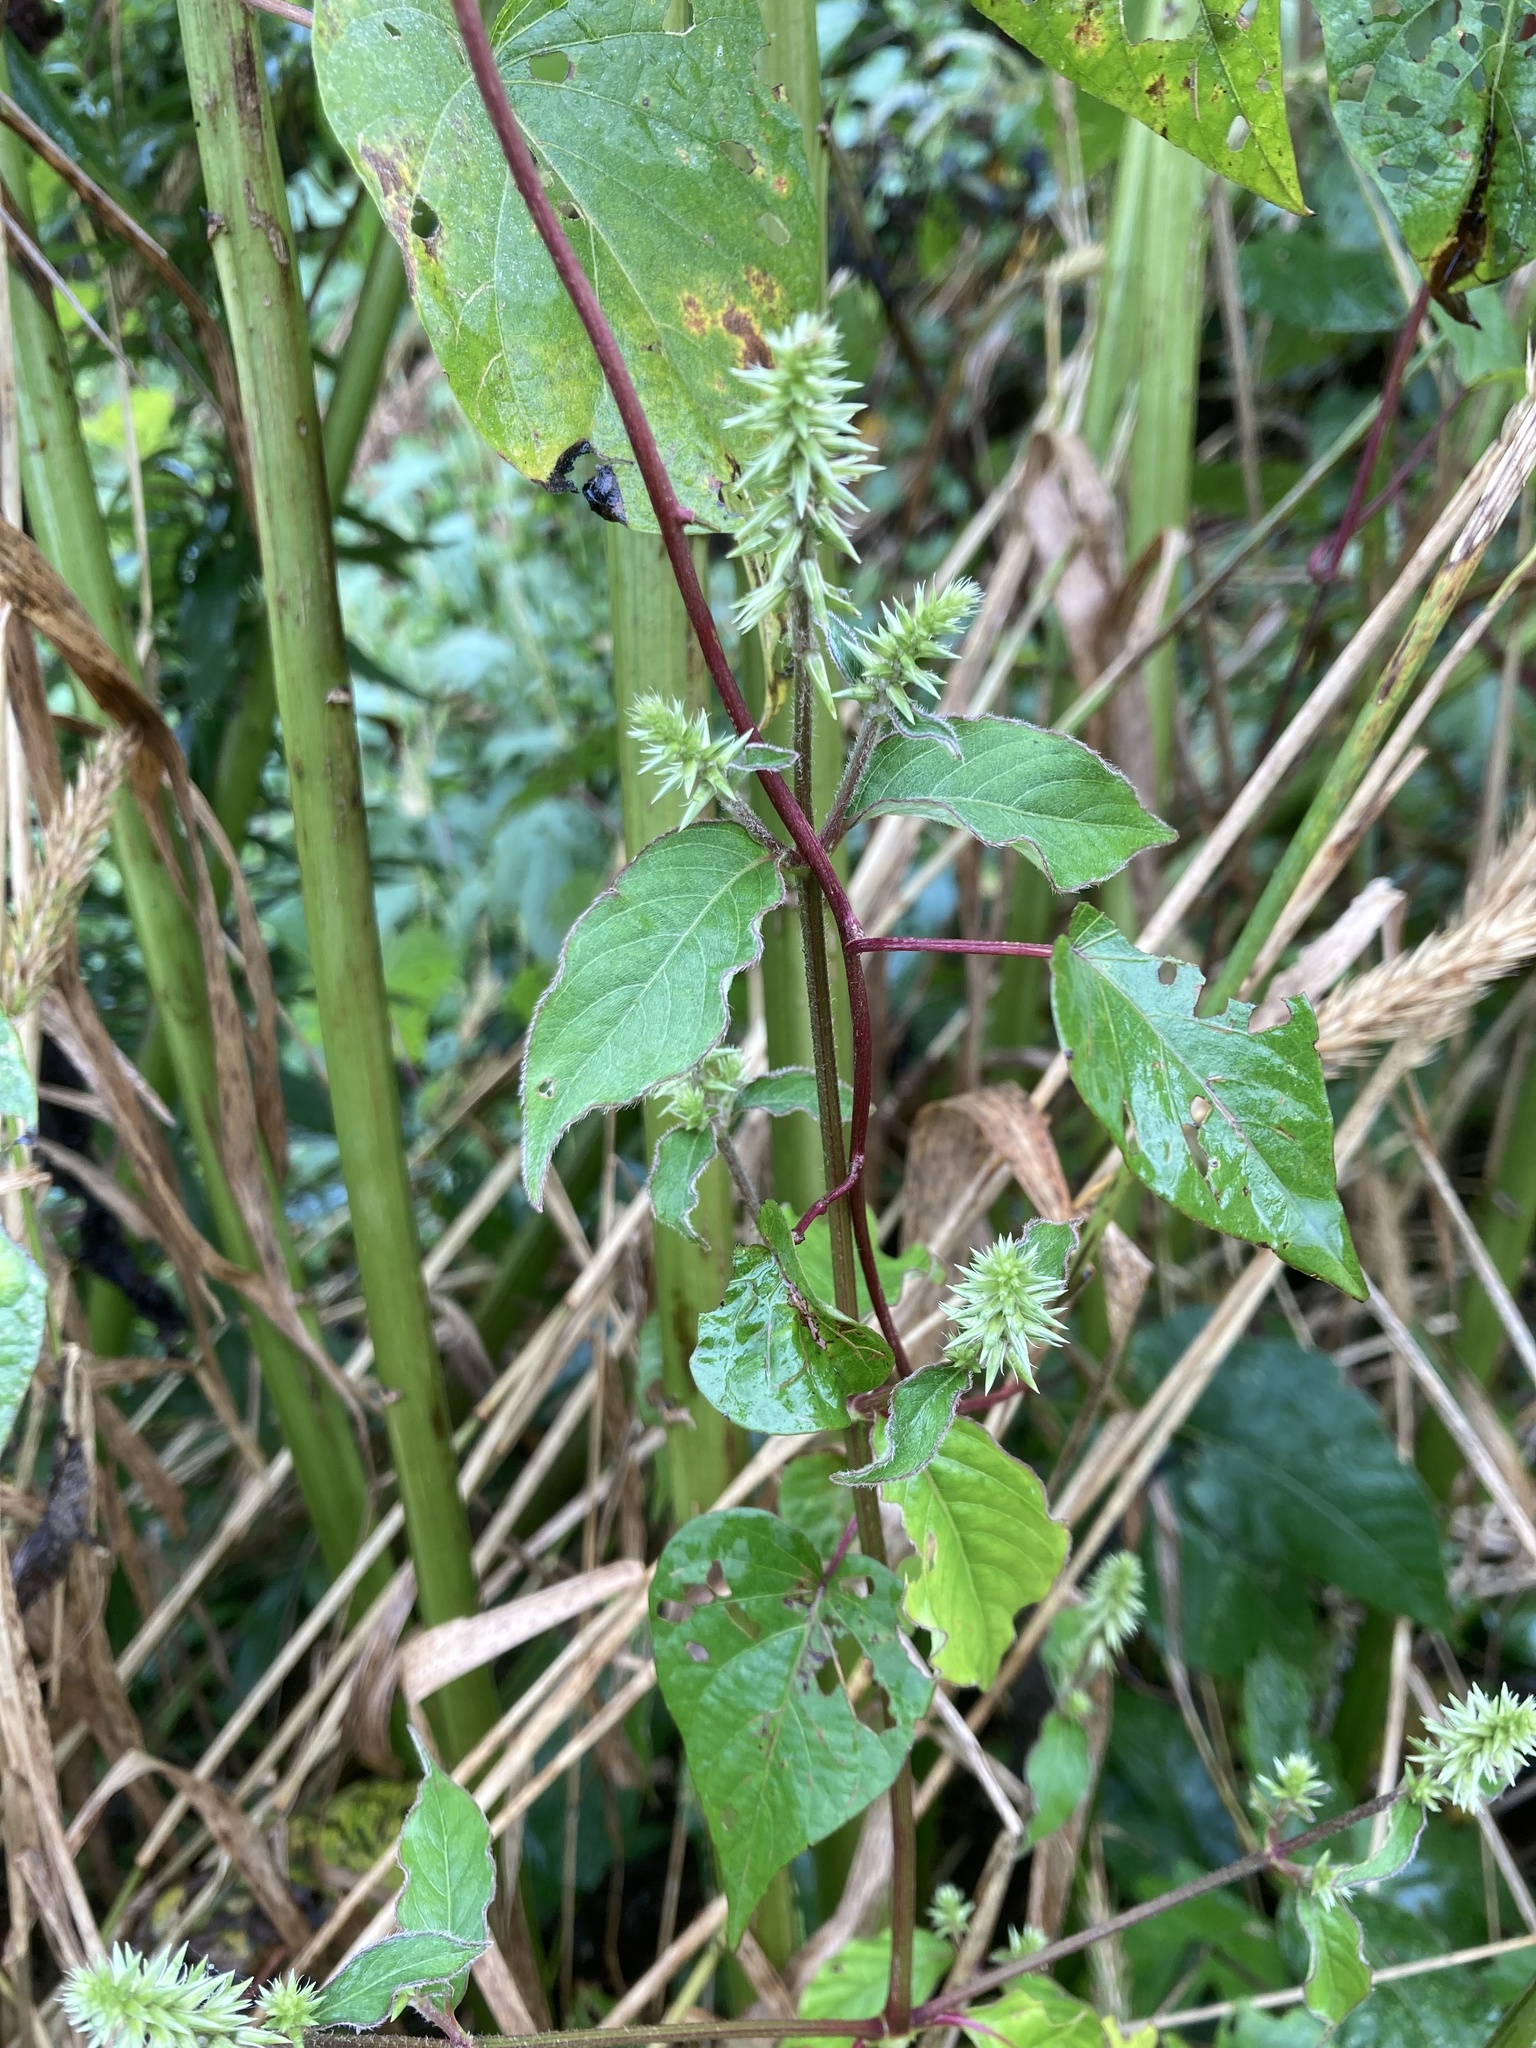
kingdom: Plantae
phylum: Tracheophyta
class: Magnoliopsida
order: Caryophyllales
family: Amaranthaceae
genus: Achyranthes
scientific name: Achyranthes bidentata
